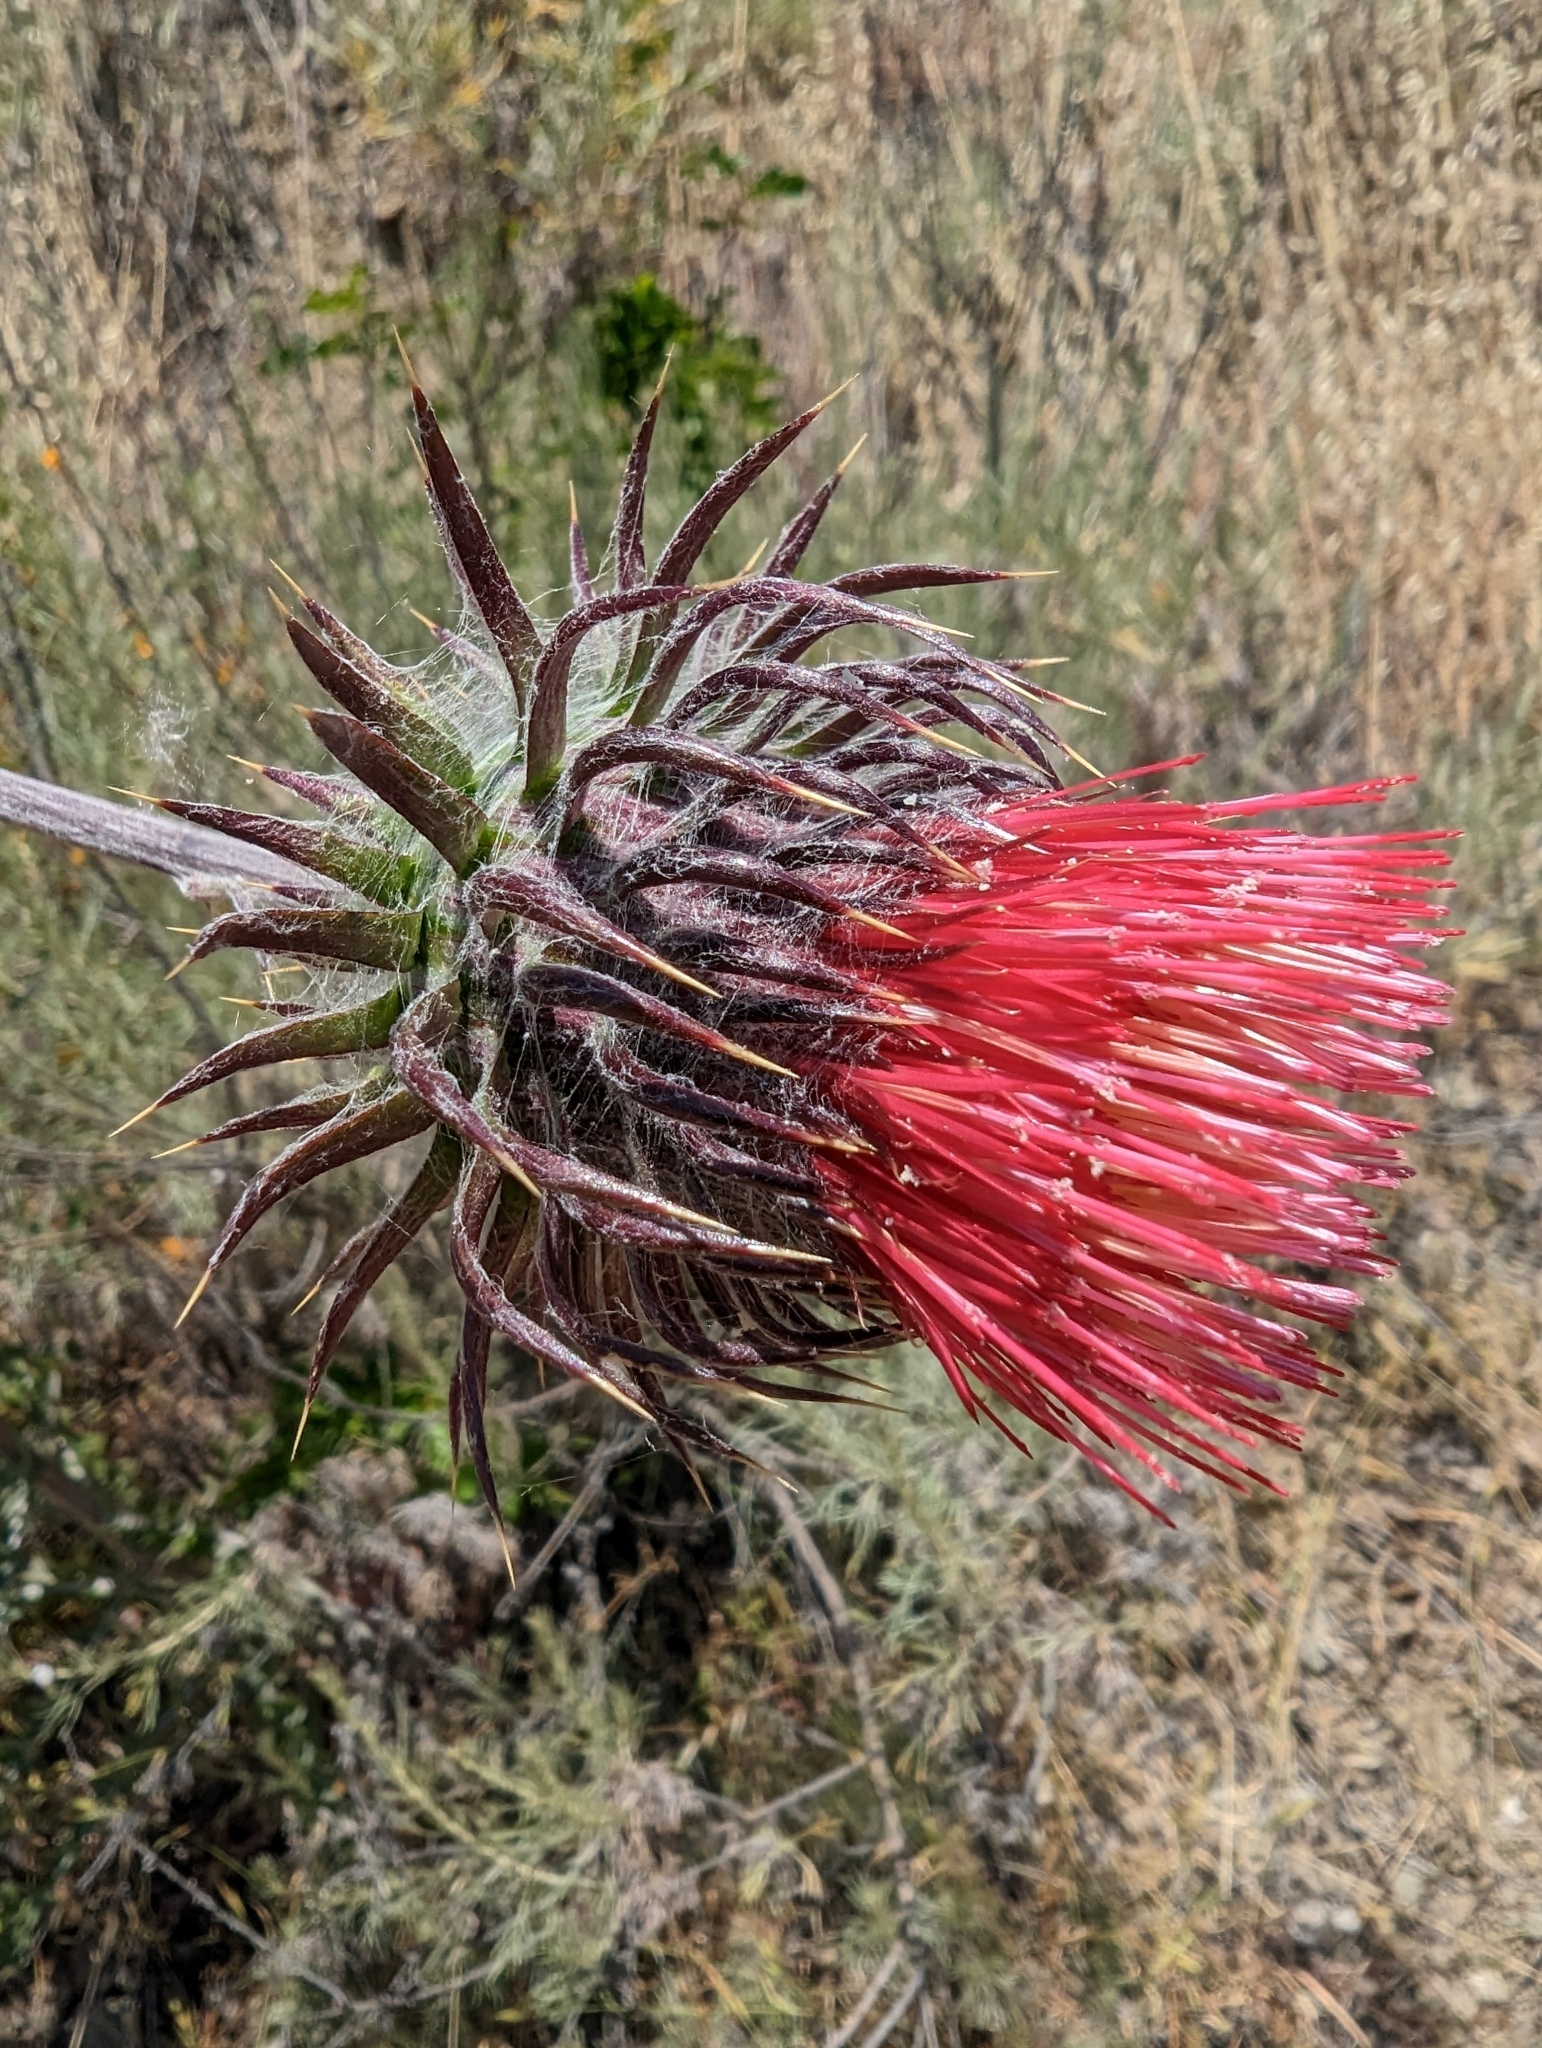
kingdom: Plantae
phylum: Tracheophyta
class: Magnoliopsida
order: Asterales
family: Asteraceae
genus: Cirsium
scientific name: Cirsium occidentale
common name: Western thistle
